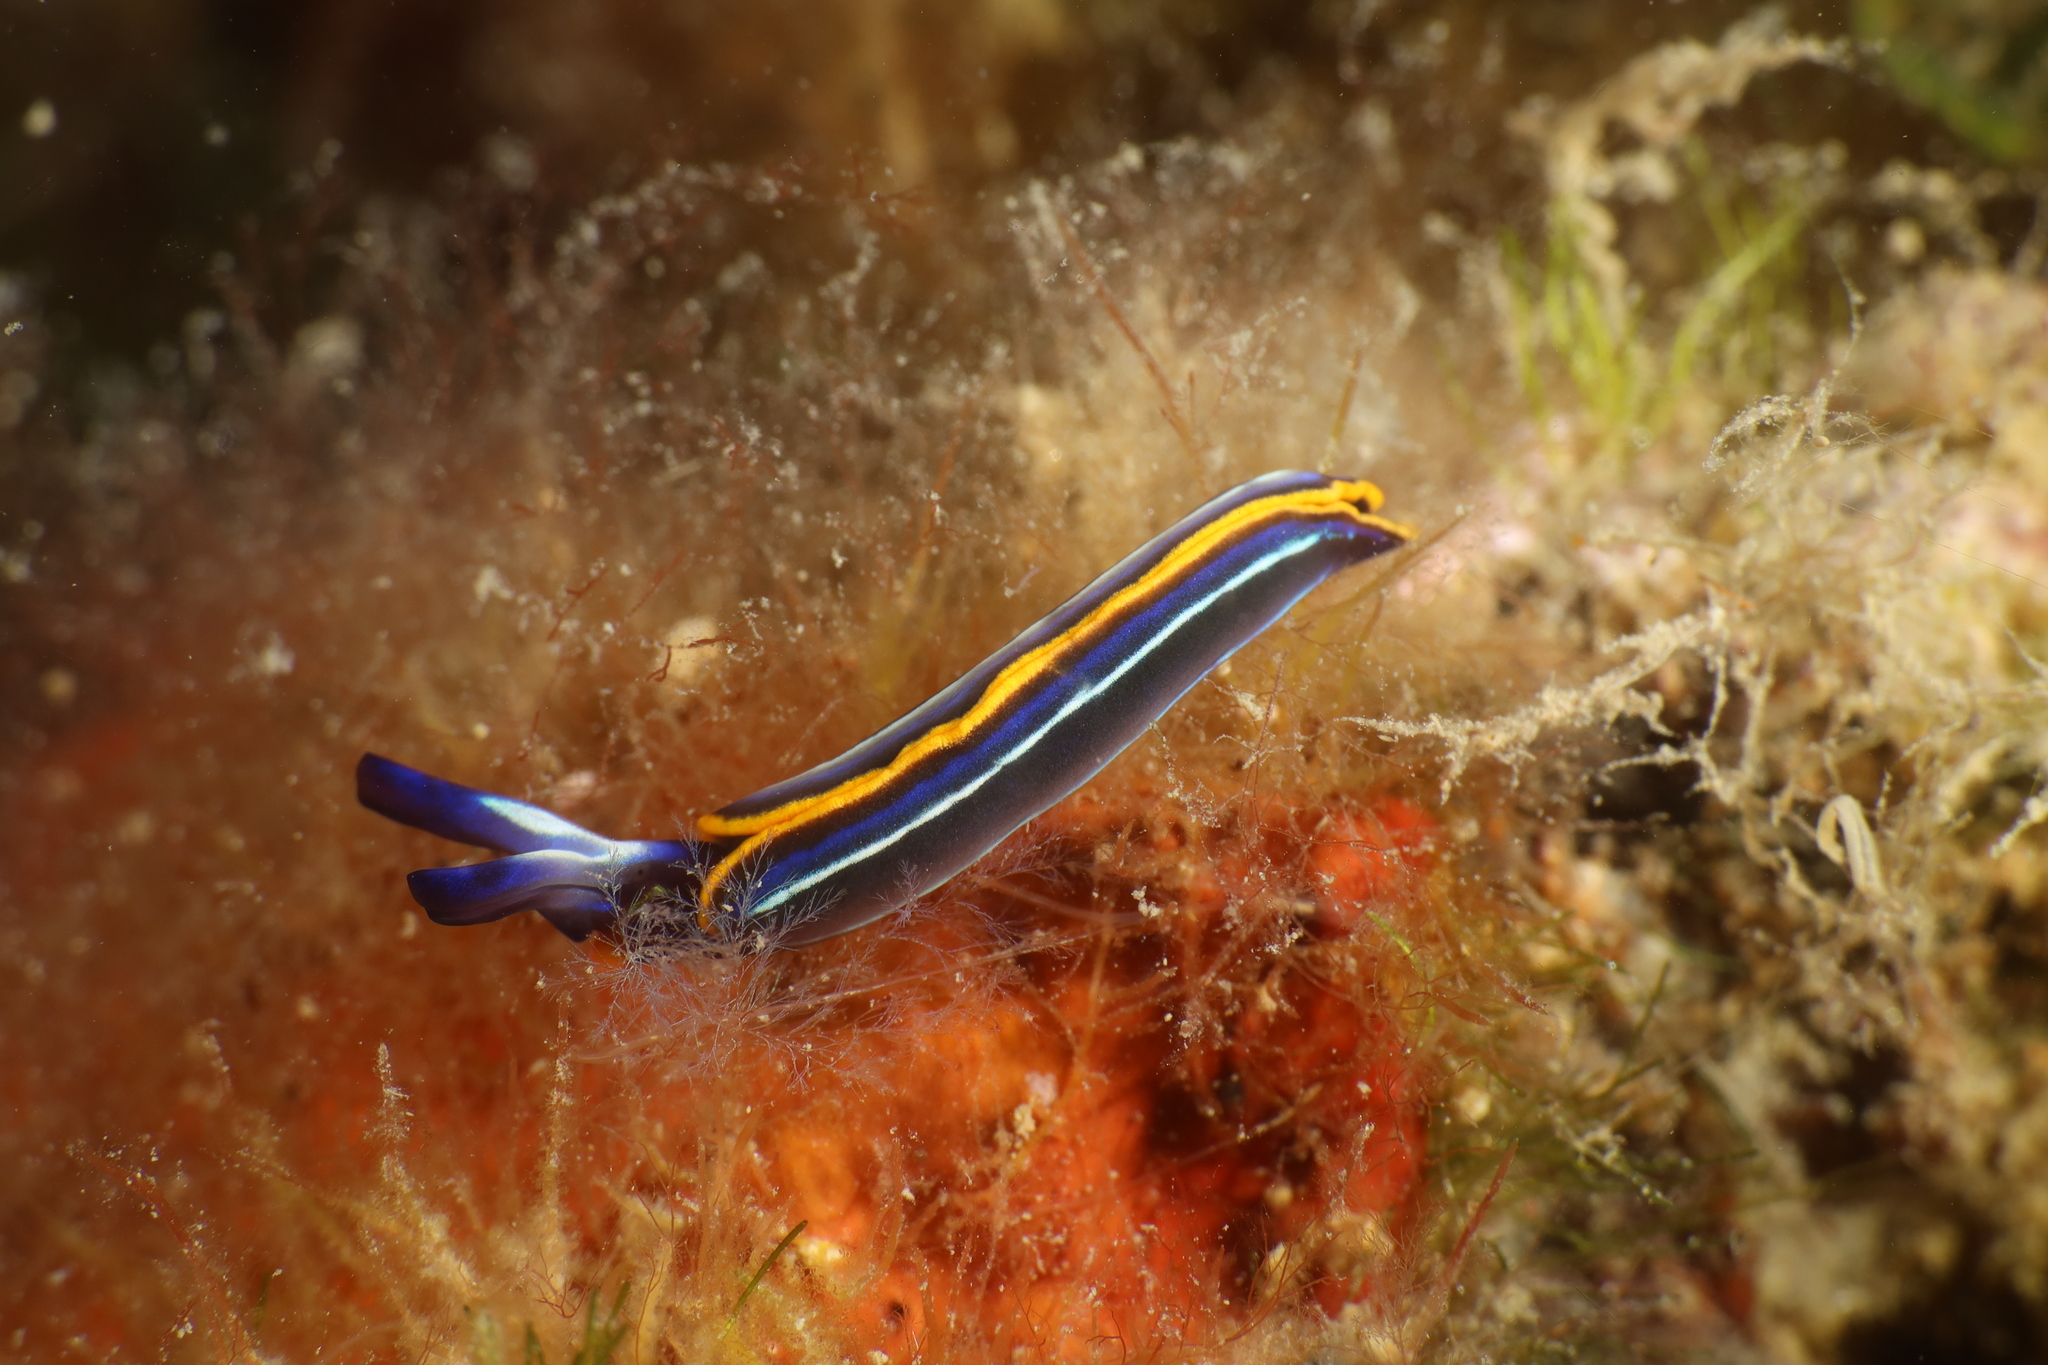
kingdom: Animalia
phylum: Mollusca
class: Gastropoda
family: Plakobranchidae
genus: Thuridilla
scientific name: Thuridilla hopei
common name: Splendid elysia
